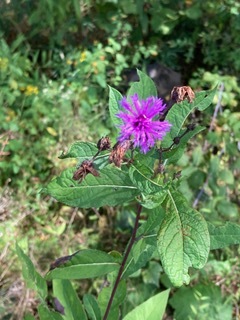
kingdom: Plantae
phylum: Tracheophyta
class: Magnoliopsida
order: Asterales
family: Asteraceae
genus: Vernonia
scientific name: Vernonia noveboracensis
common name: New york ironweed
